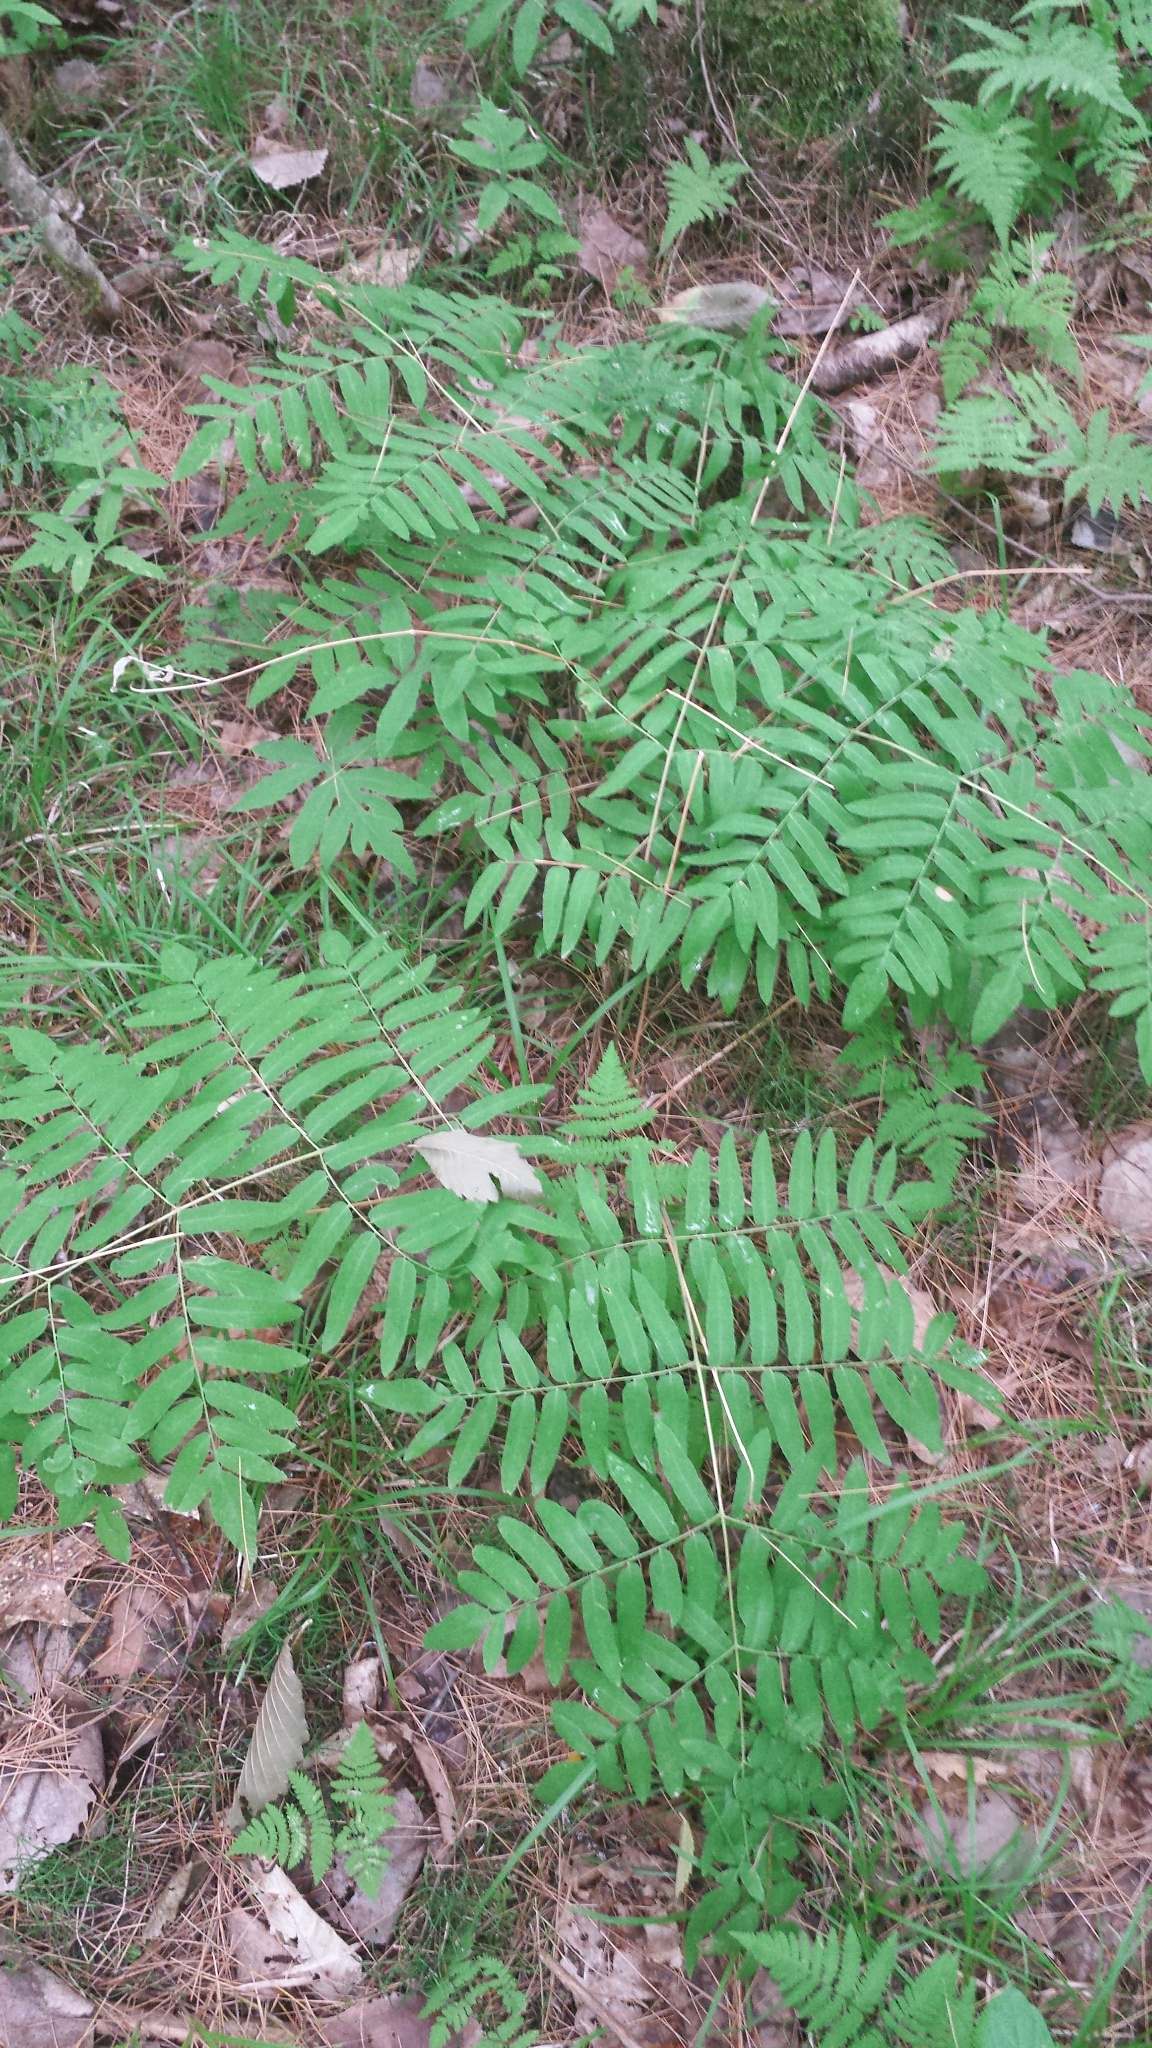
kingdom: Plantae
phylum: Tracheophyta
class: Polypodiopsida
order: Osmundales
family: Osmundaceae
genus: Osmunda
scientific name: Osmunda spectabilis
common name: American royal fern
